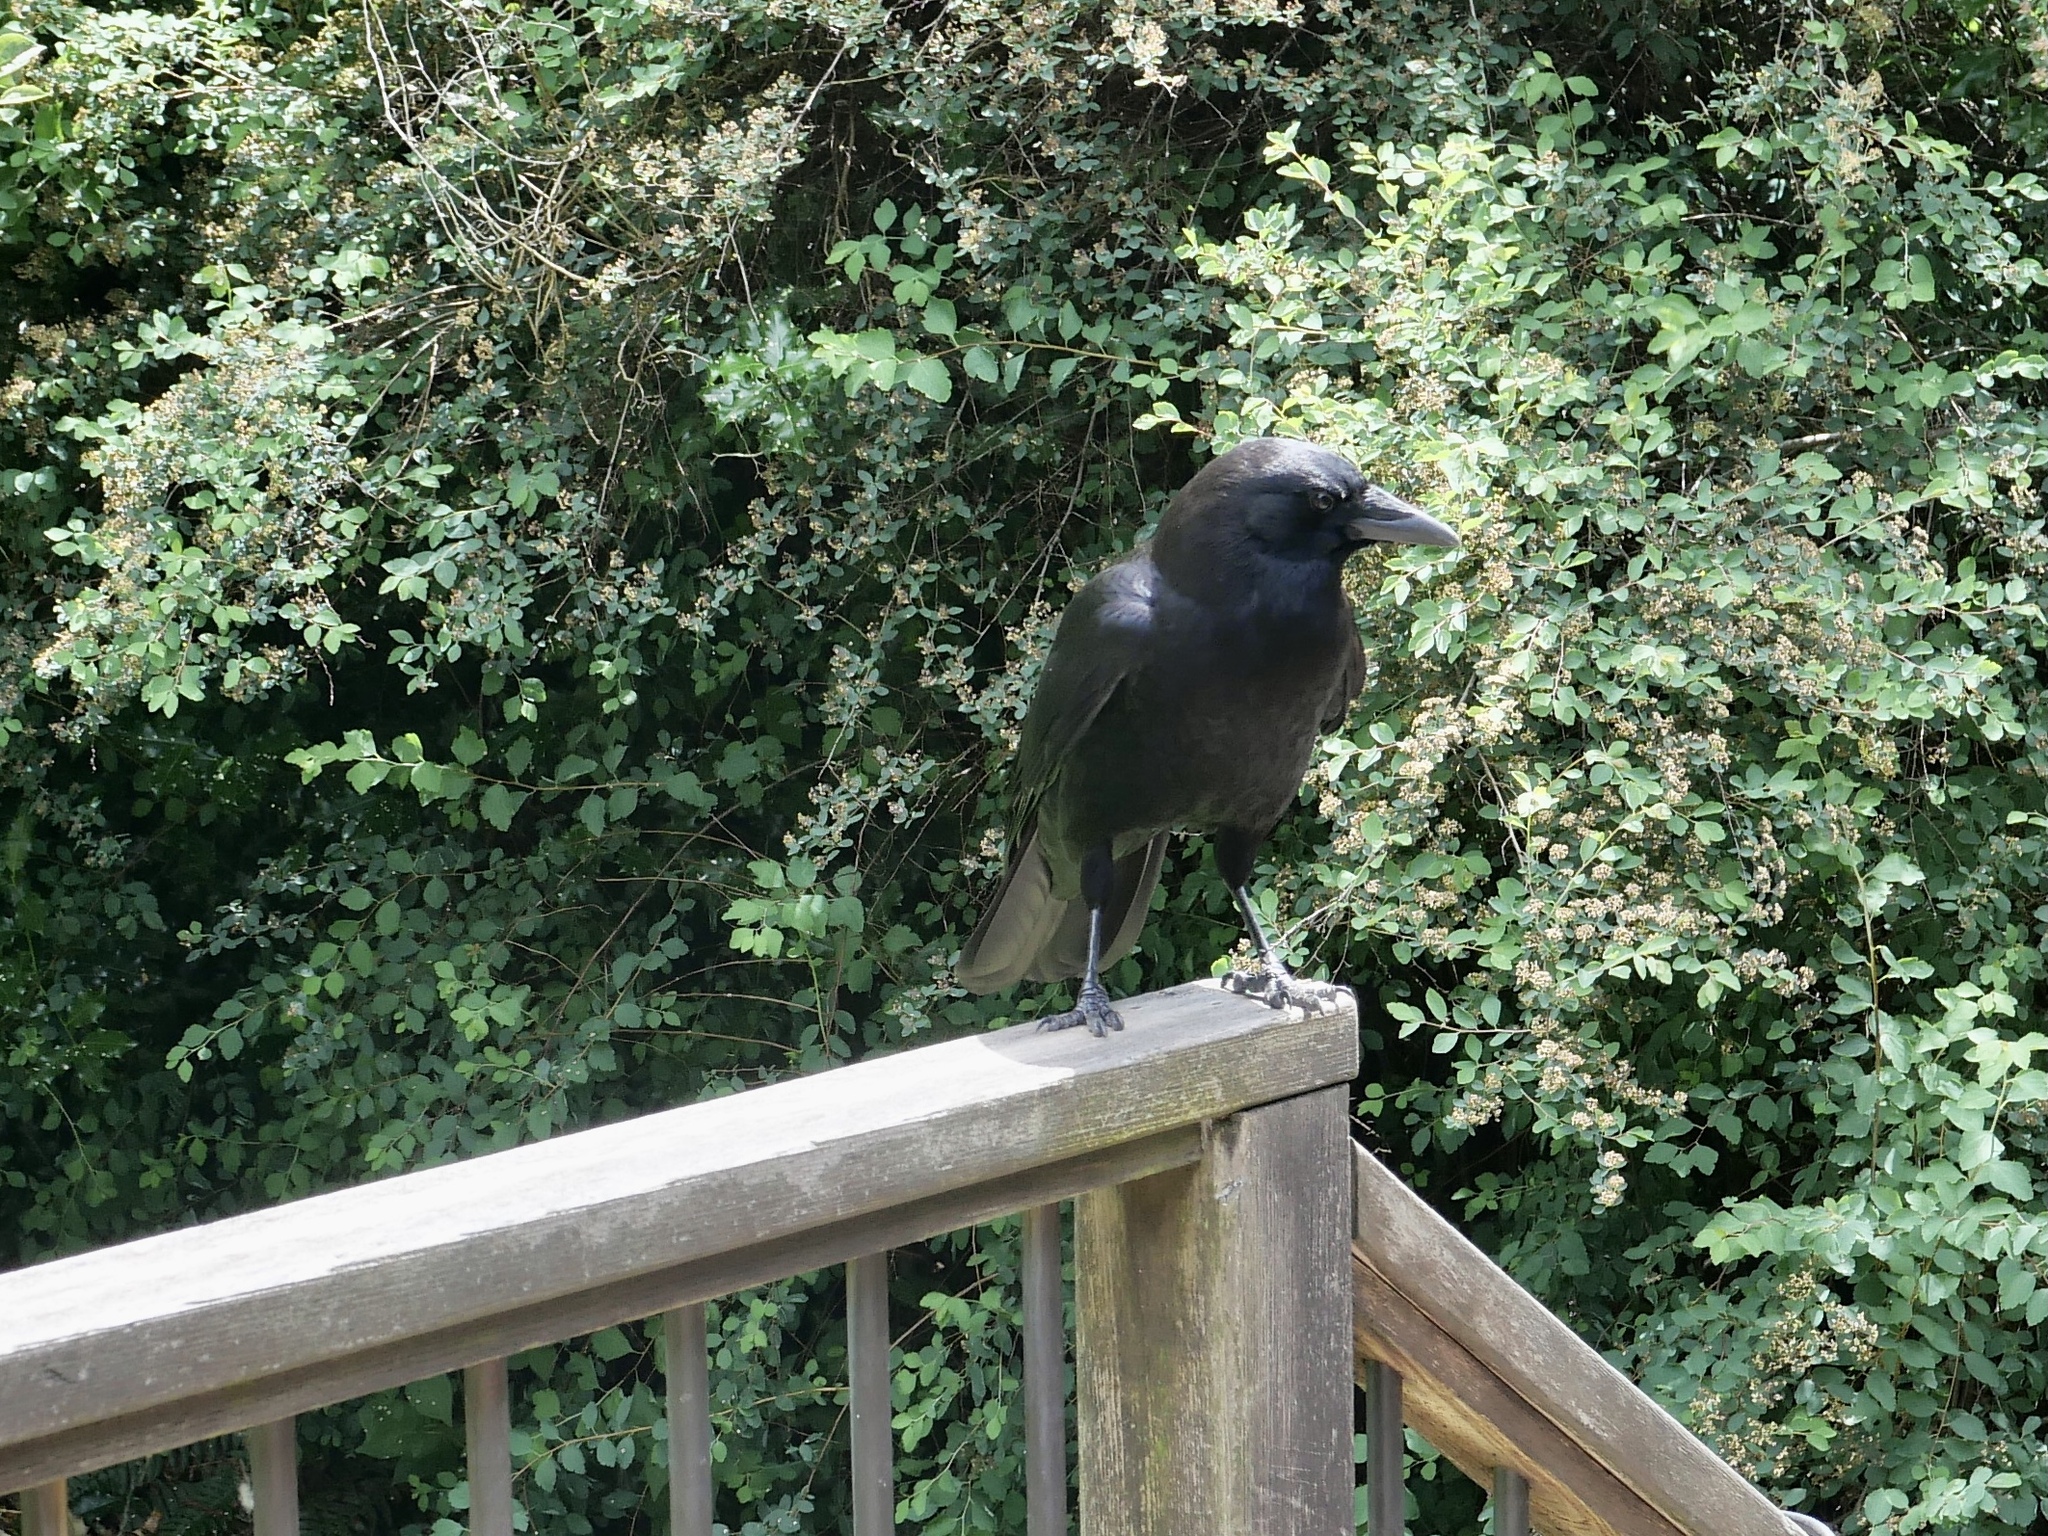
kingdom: Animalia
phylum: Chordata
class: Aves
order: Passeriformes
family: Corvidae
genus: Corvus
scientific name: Corvus brachyrhynchos
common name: American crow
